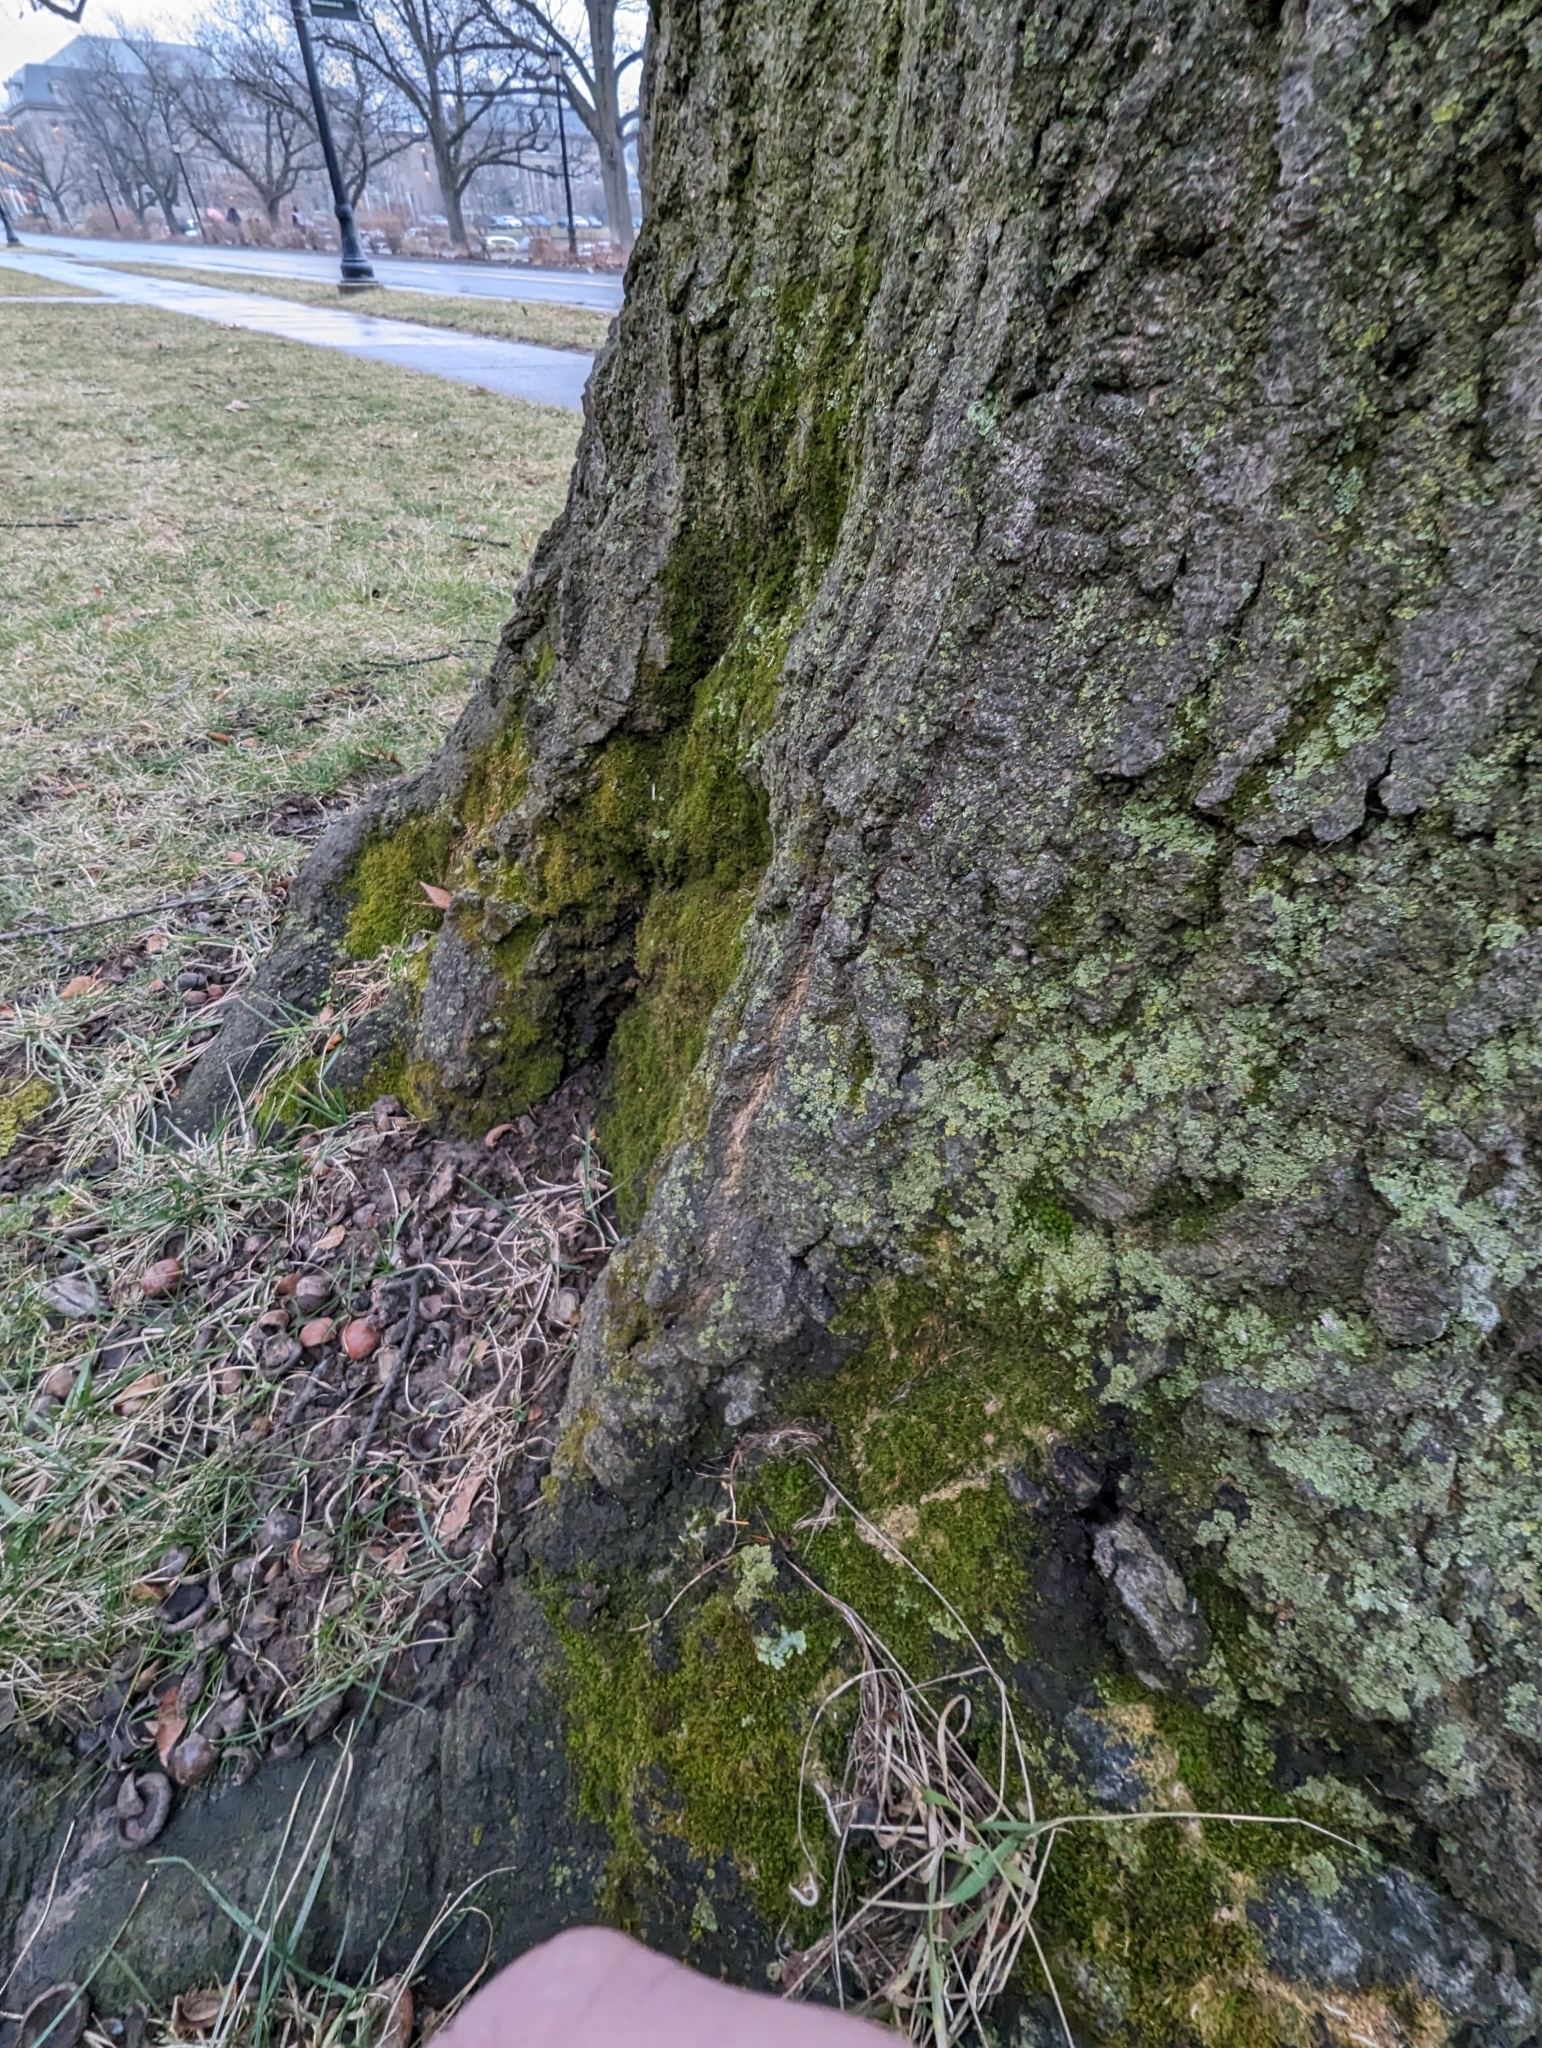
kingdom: Fungi
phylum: Ascomycota
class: Lecanoromycetes
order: Caliciales
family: Physciaceae
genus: Phaeophyscia
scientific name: Phaeophyscia pusilloides
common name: Pom-pom shadow lichen
